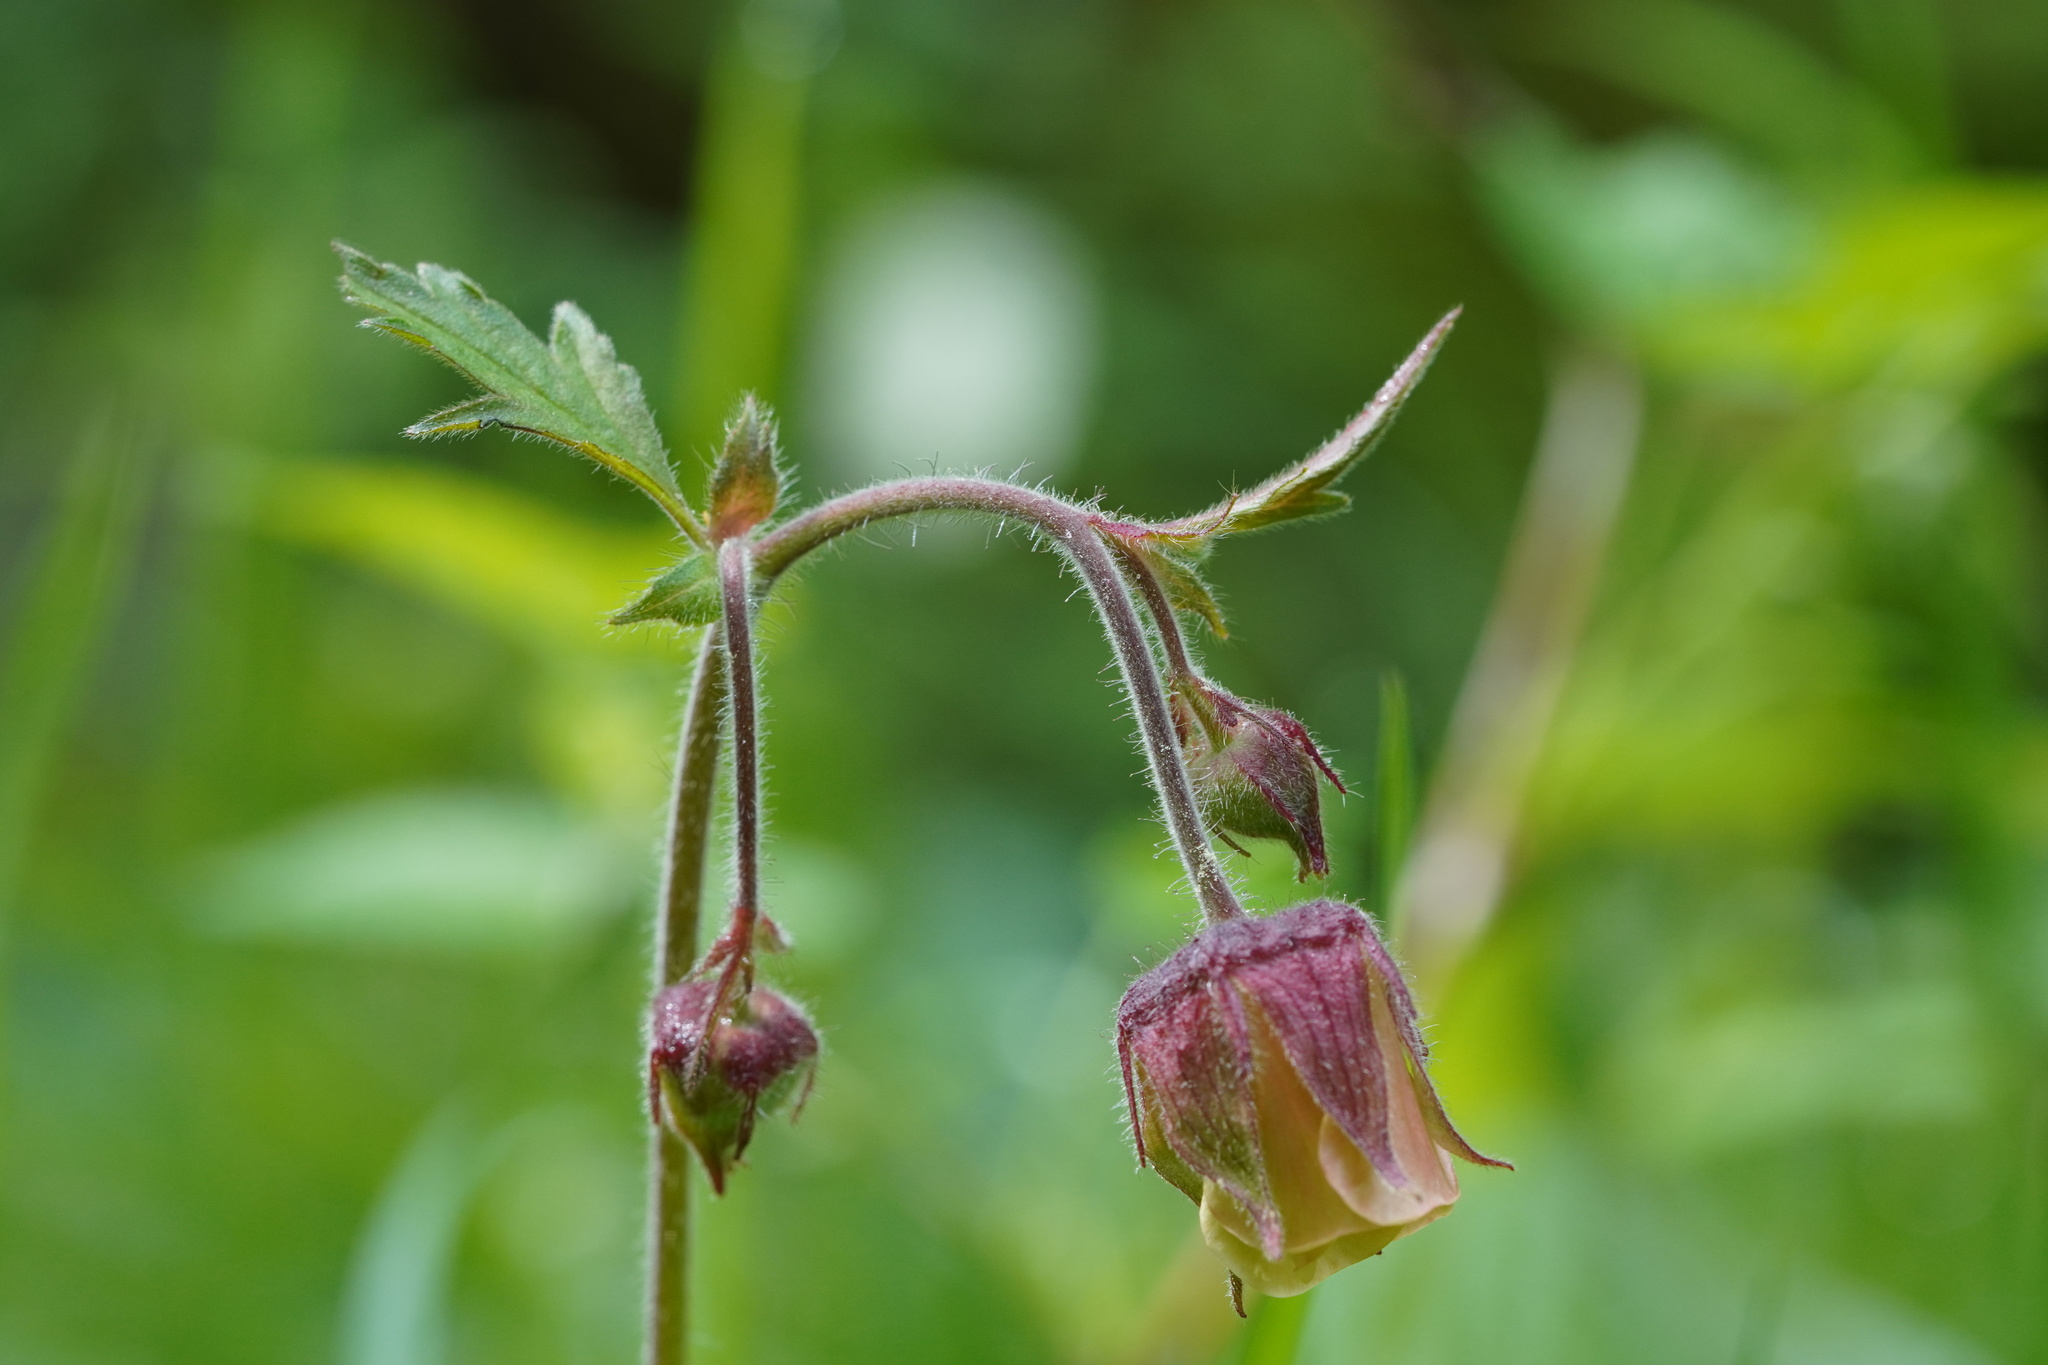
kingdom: Plantae
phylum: Tracheophyta
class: Magnoliopsida
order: Rosales
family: Rosaceae
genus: Geum
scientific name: Geum rivale
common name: Water avens
